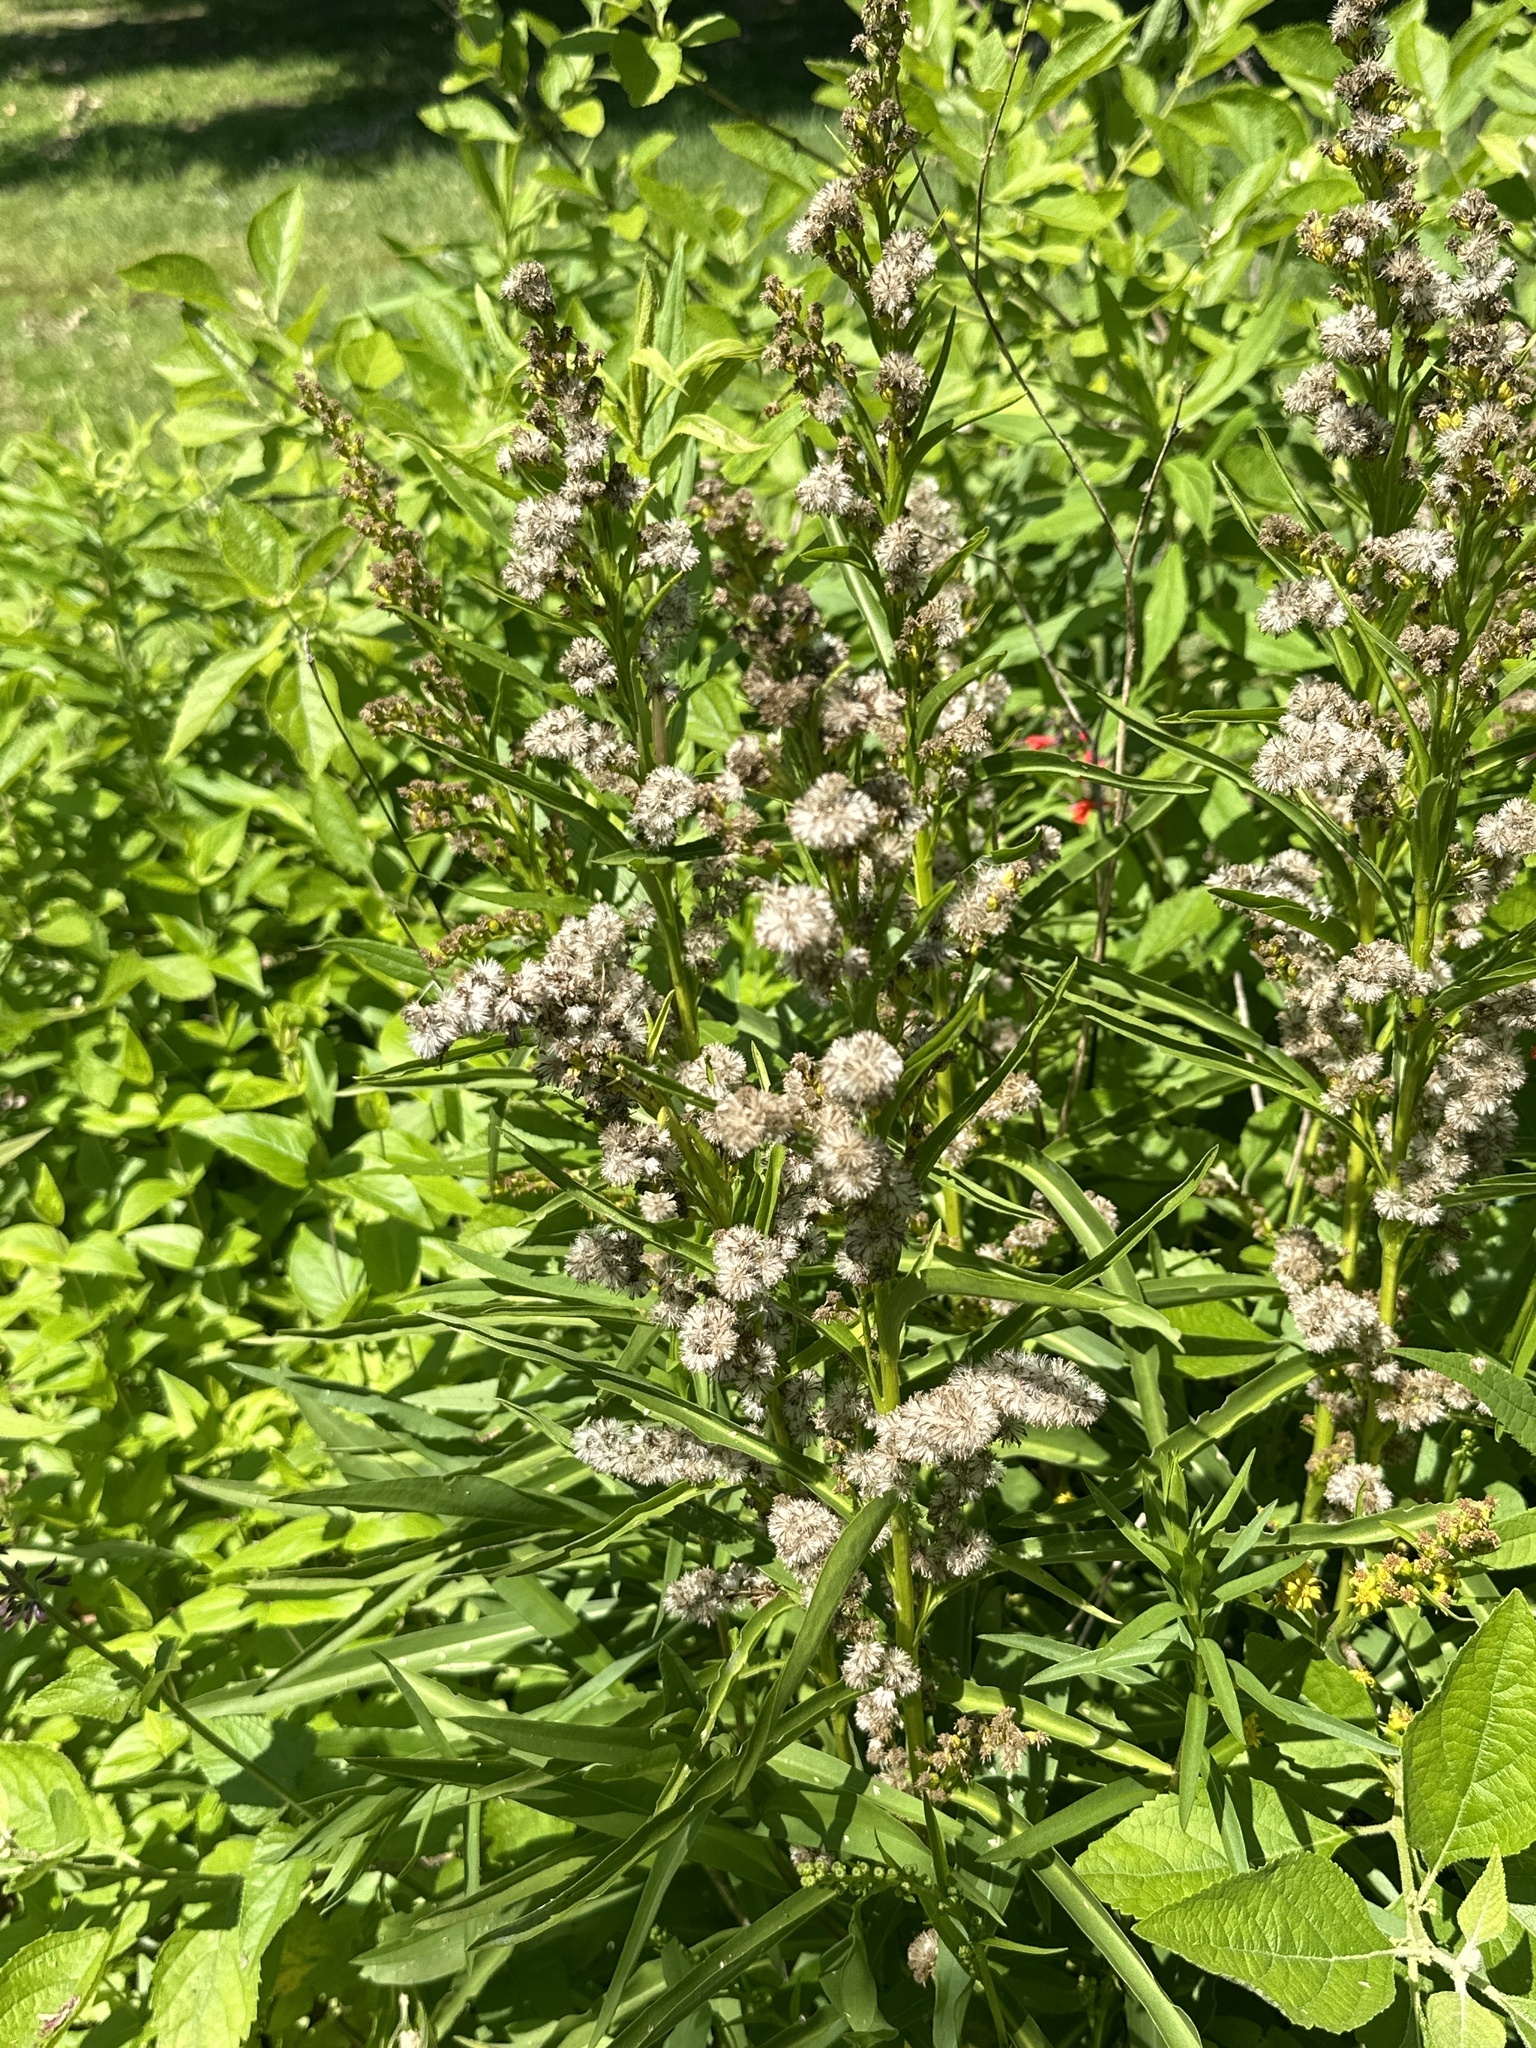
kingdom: Plantae
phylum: Tracheophyta
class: Magnoliopsida
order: Asterales
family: Asteraceae
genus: Solidago
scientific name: Solidago mexicana
